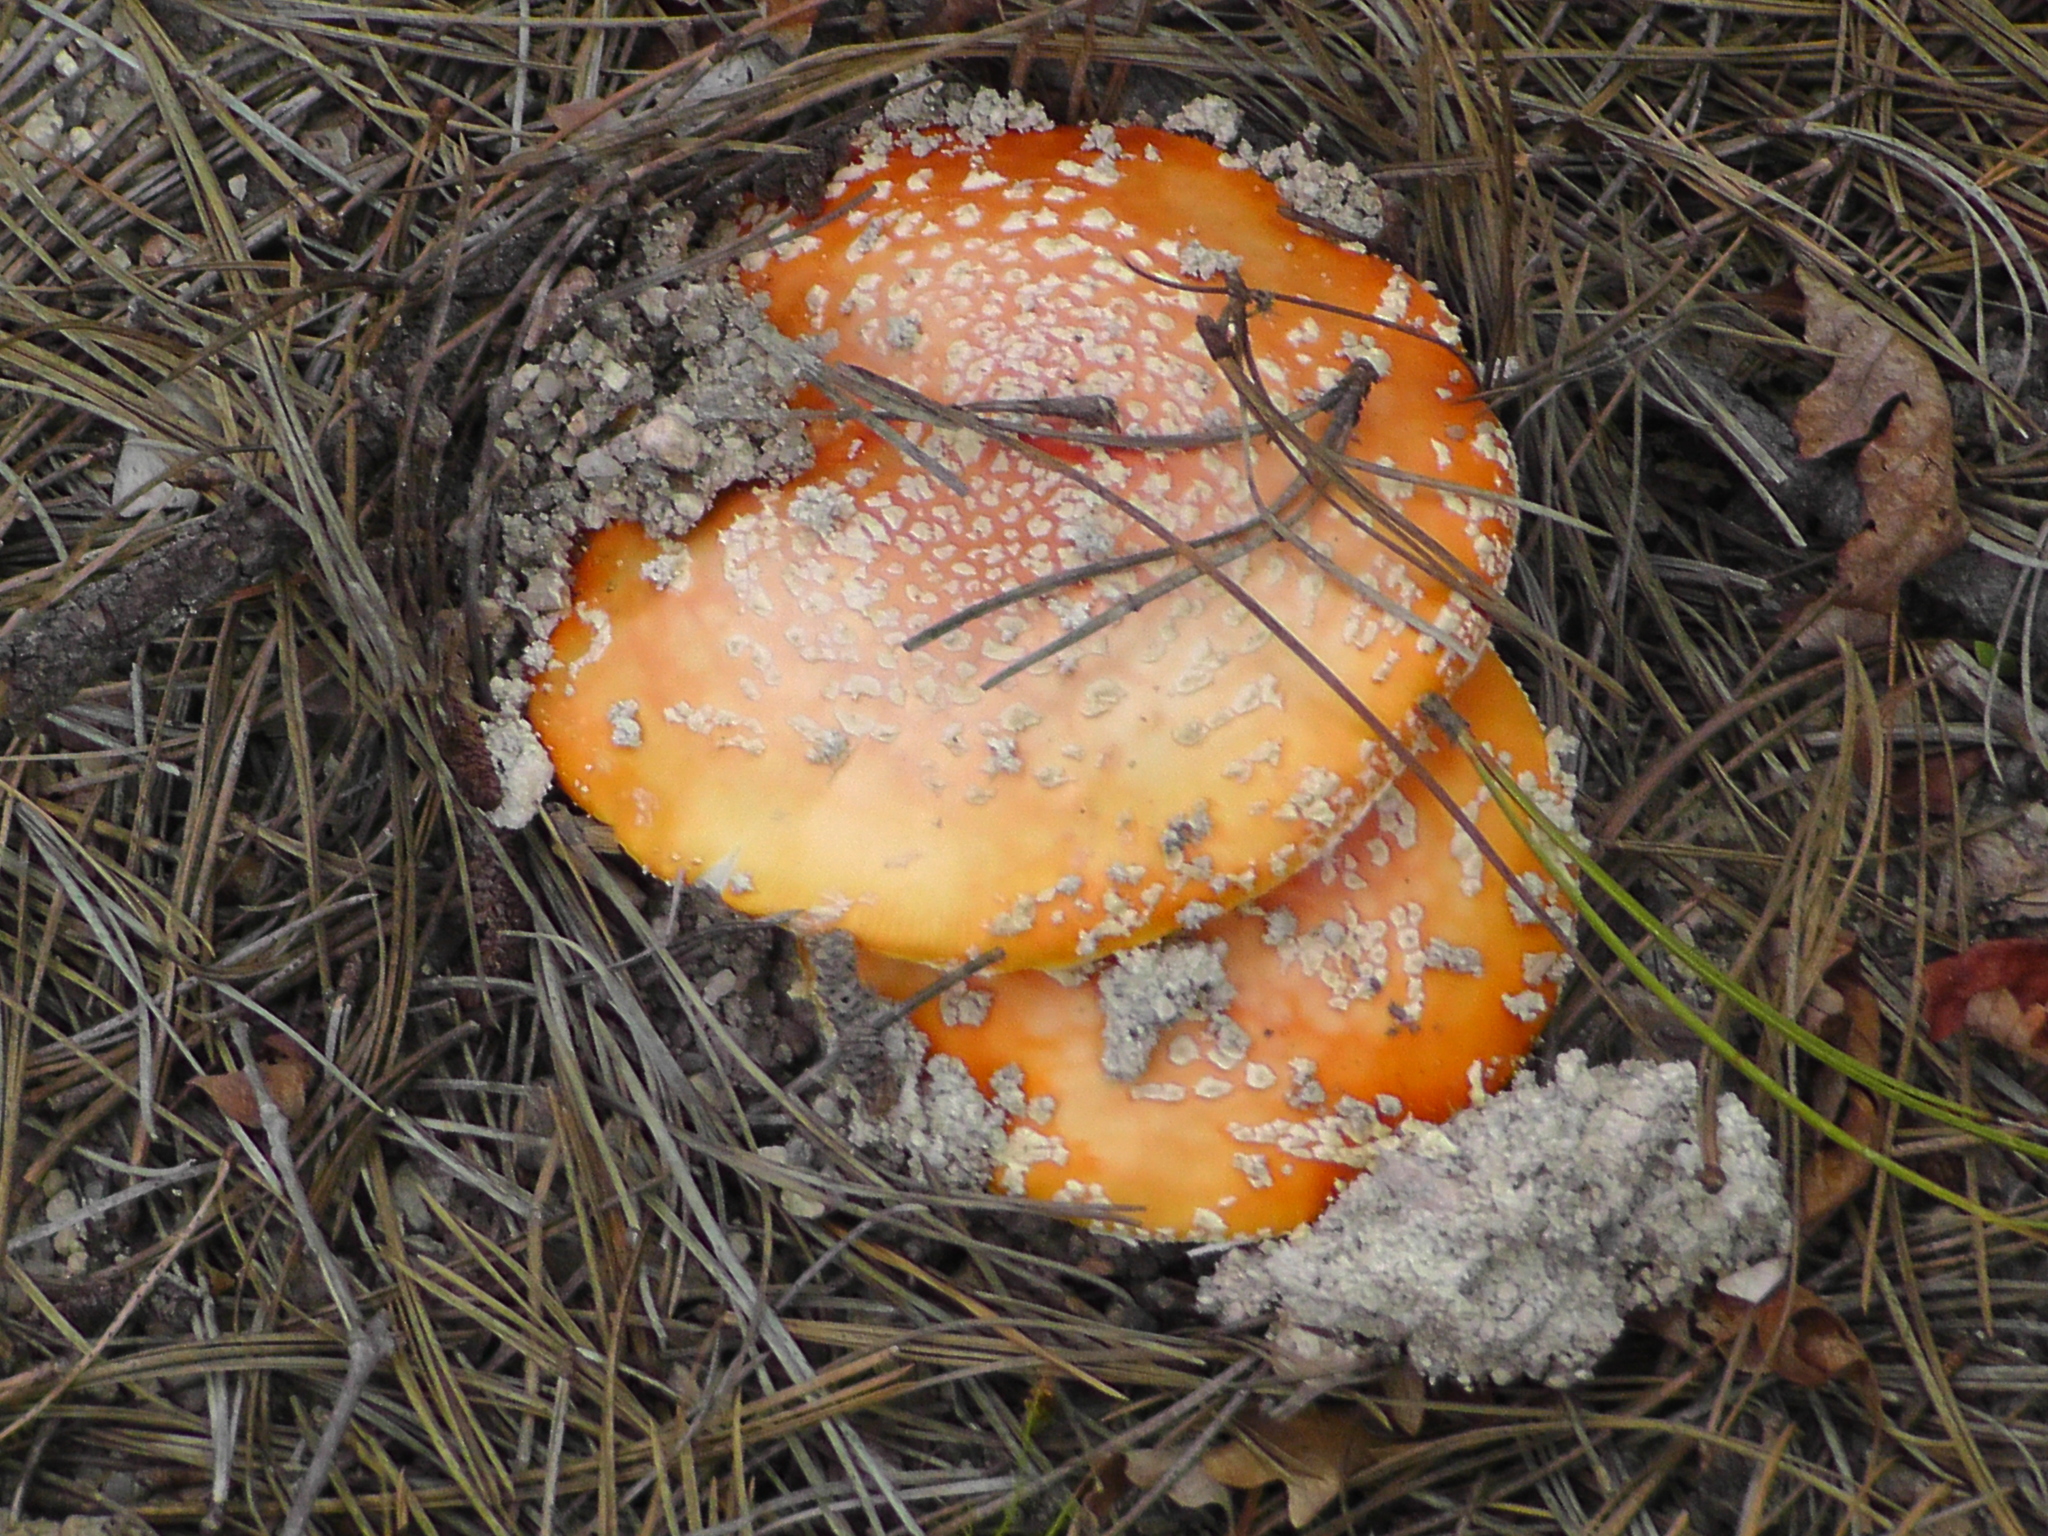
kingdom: Fungi
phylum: Basidiomycota
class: Agaricomycetes
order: Agaricales
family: Amanitaceae
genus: Amanita
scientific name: Amanita muscaria
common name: Fly agaric
